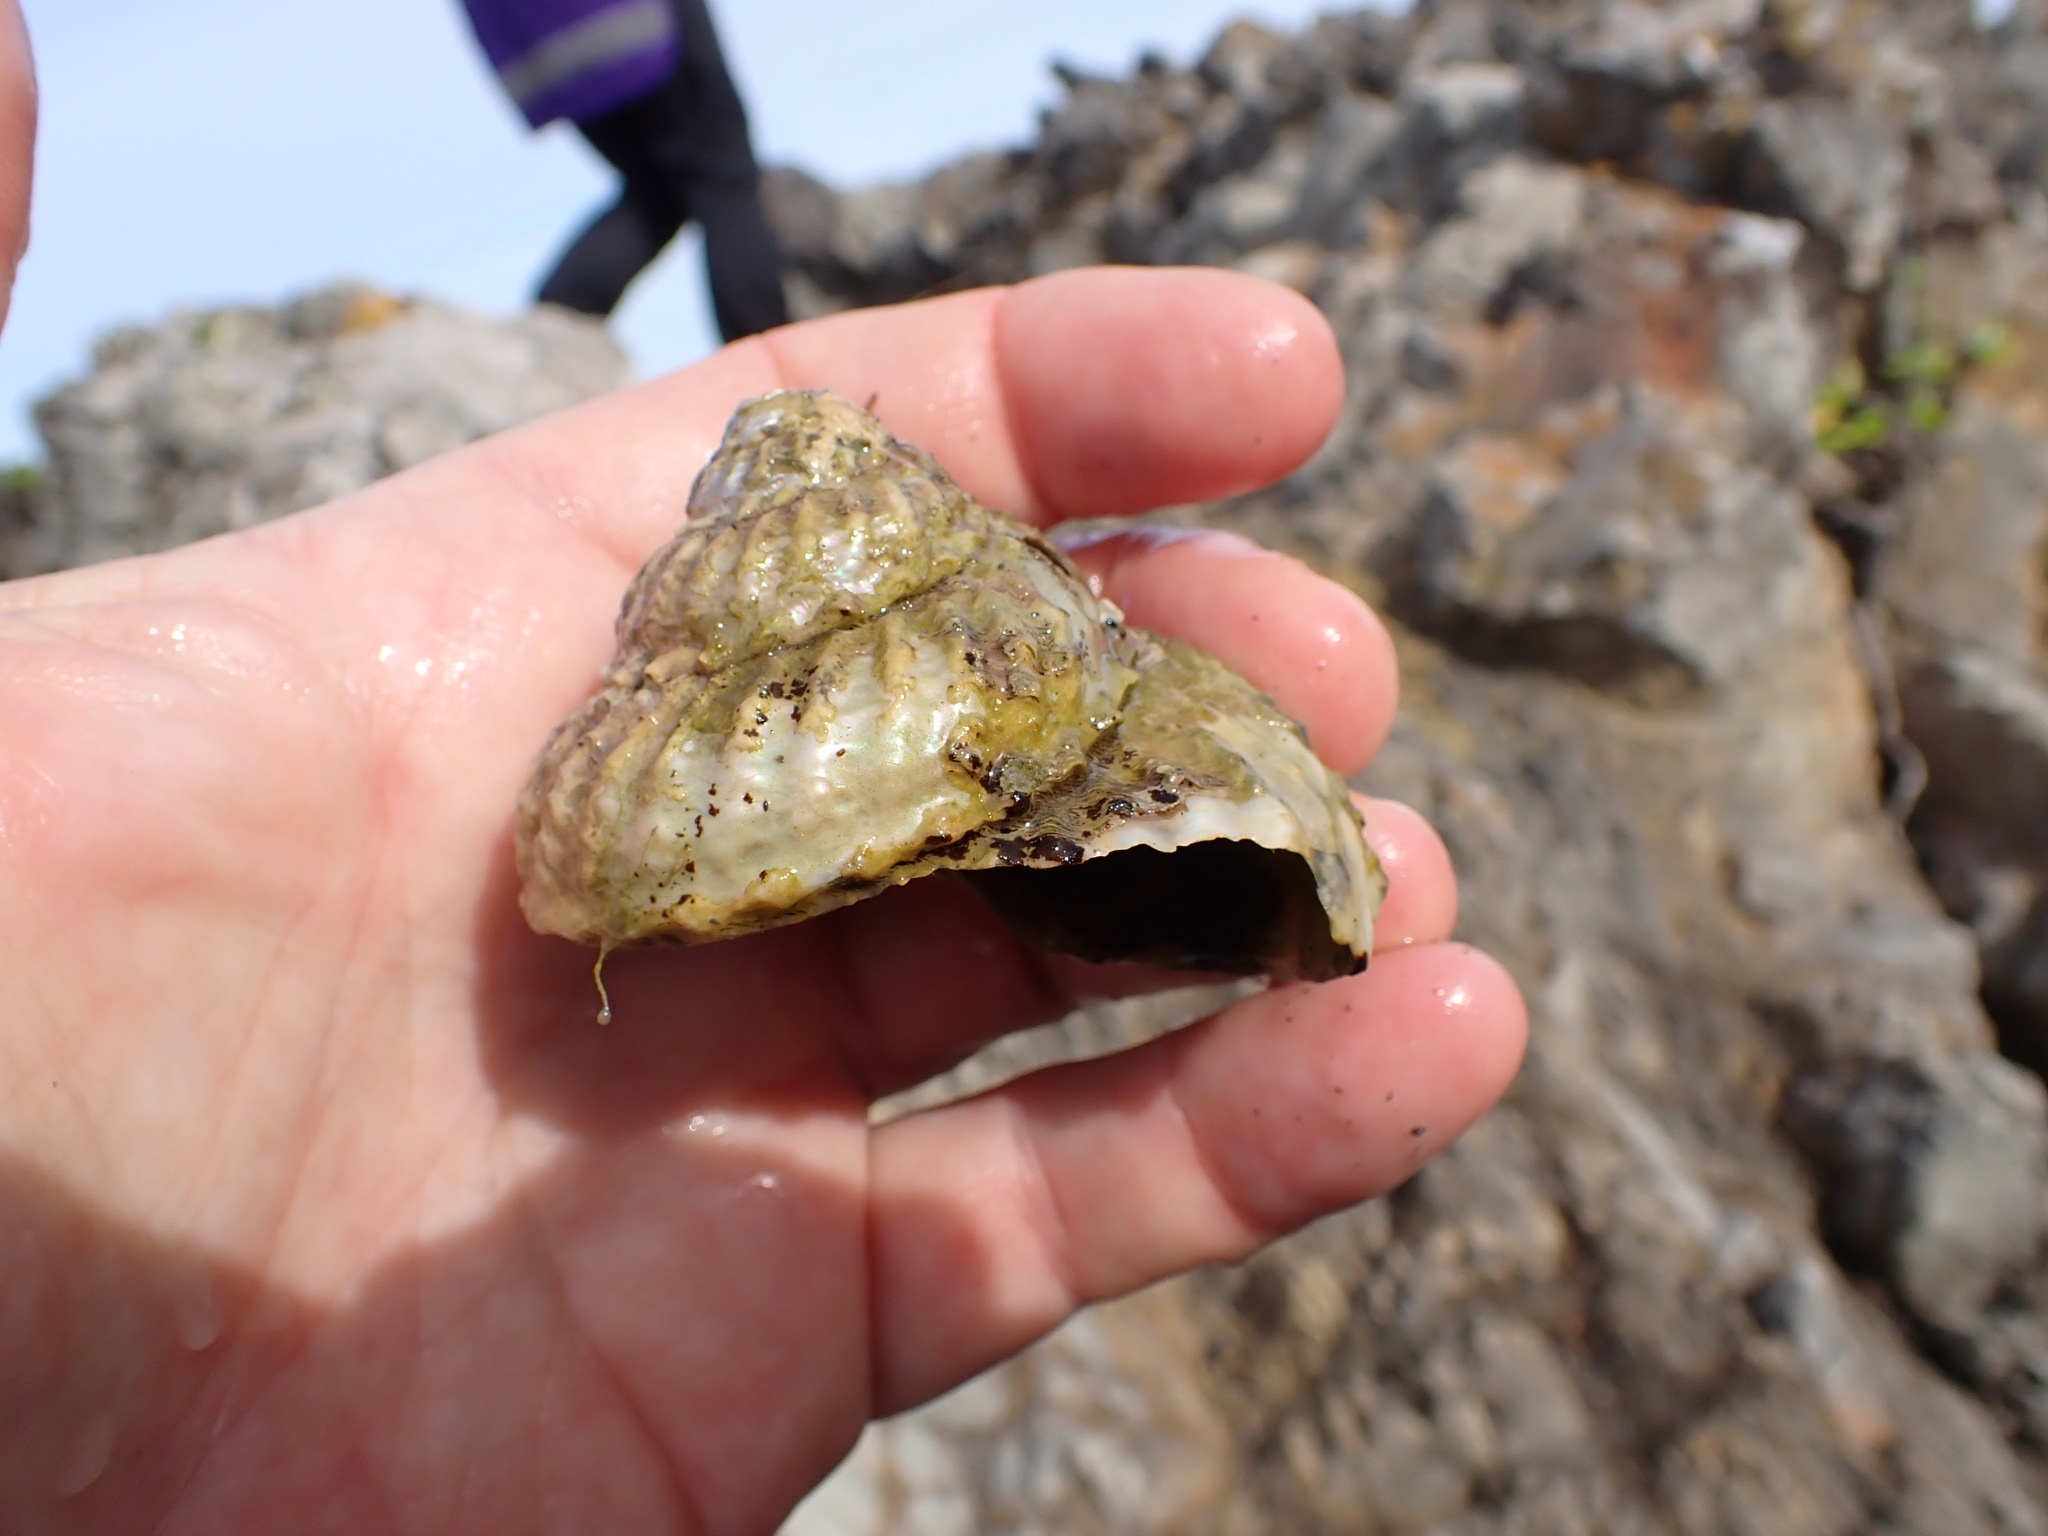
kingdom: Animalia
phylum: Mollusca
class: Gastropoda
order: Trochida
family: Turbinidae
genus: Cookia
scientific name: Cookia sulcata
